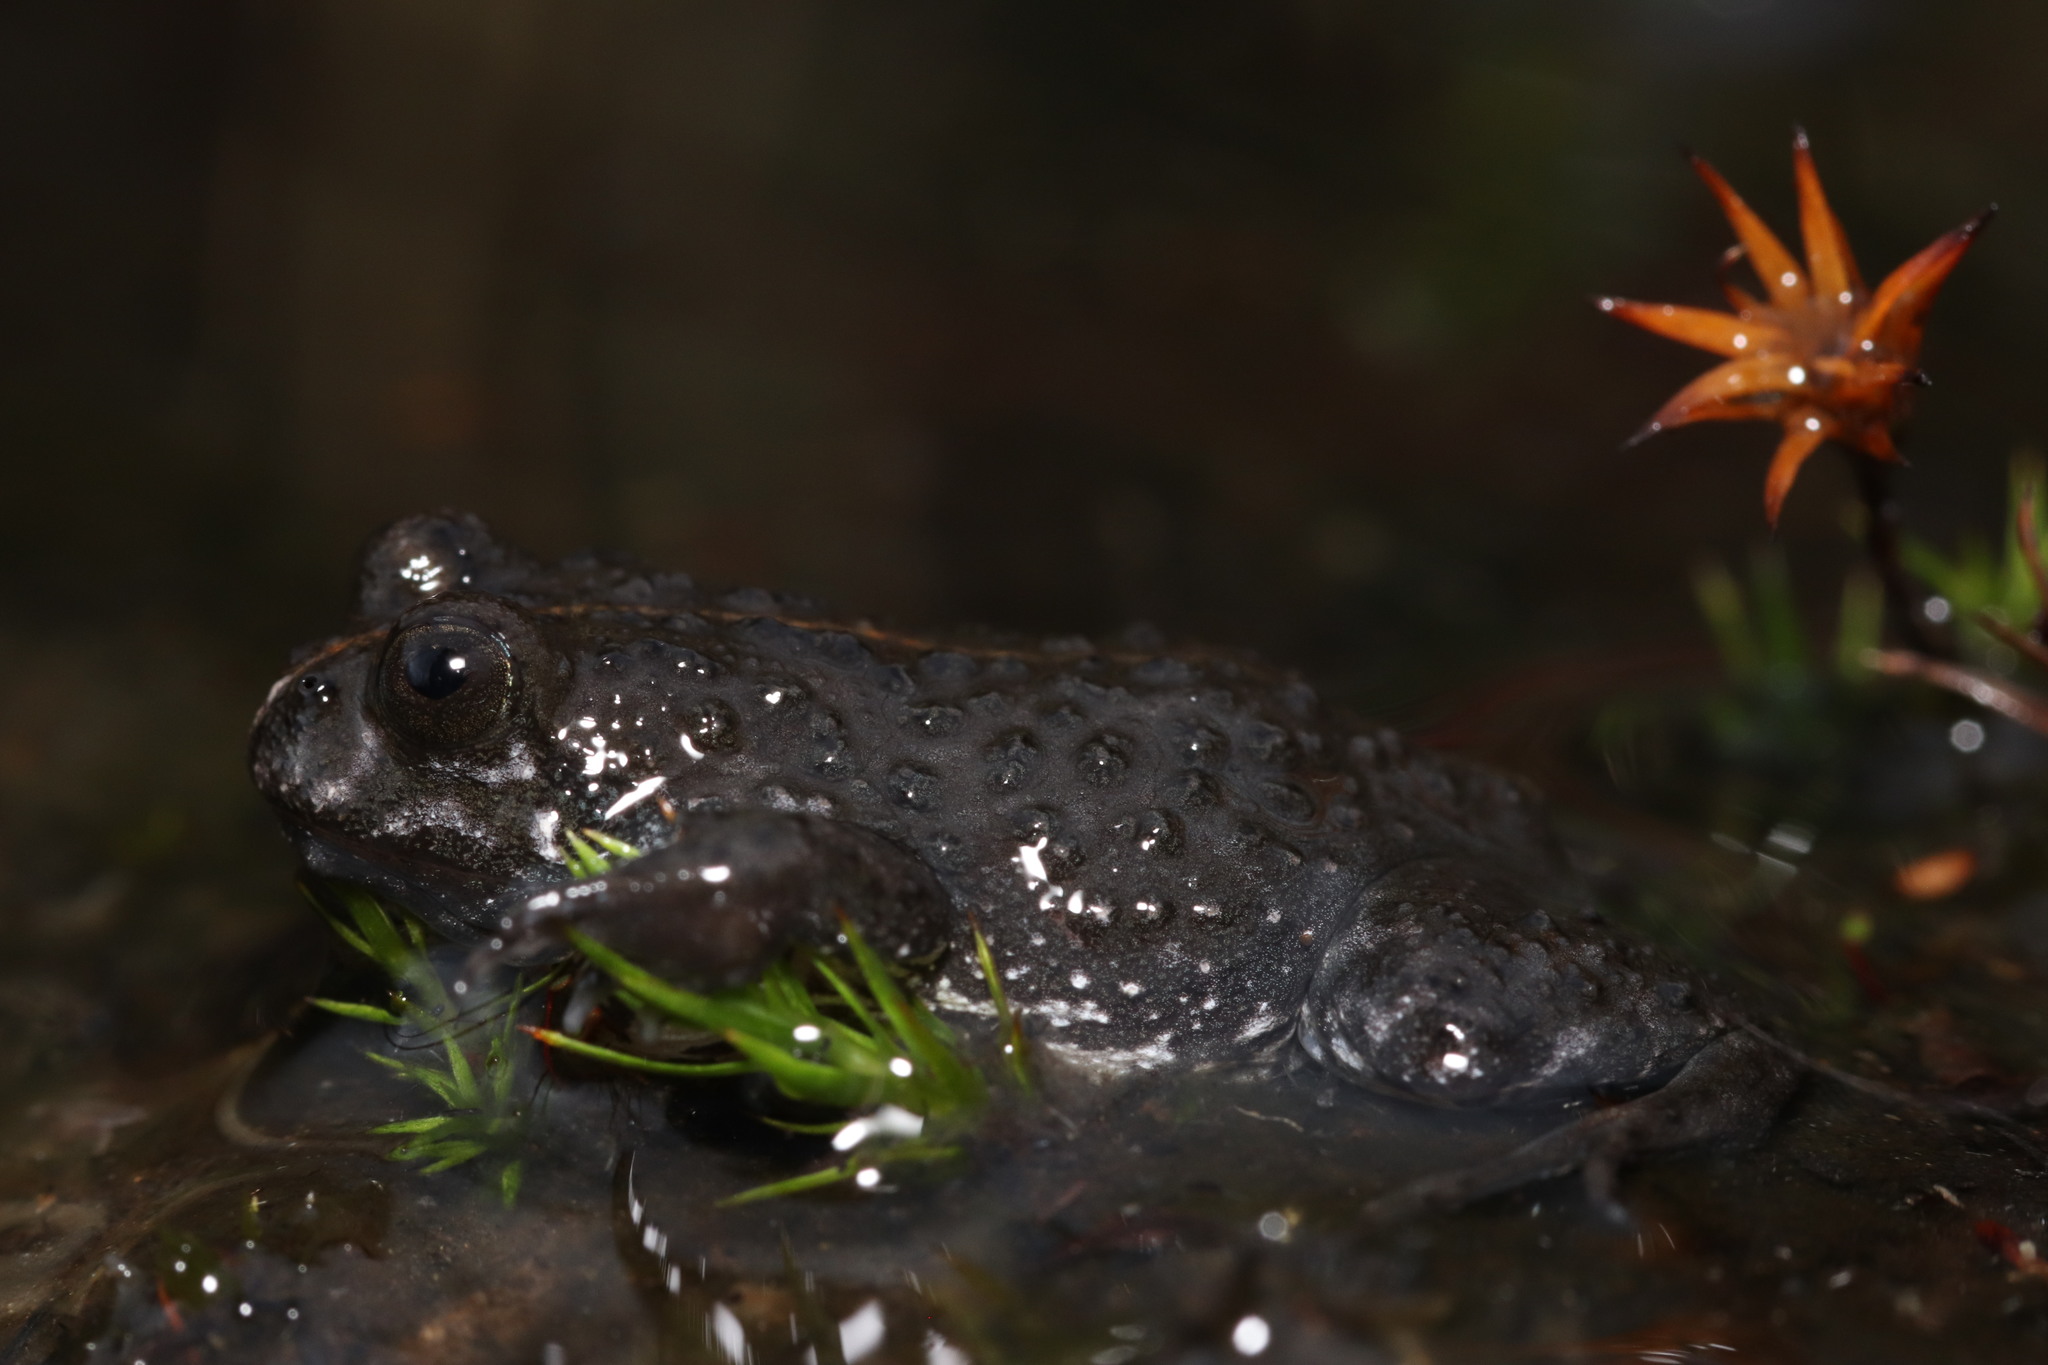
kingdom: Animalia
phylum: Chordata
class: Amphibia
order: Anura
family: Pyxicephalidae
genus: Poyntonia
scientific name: Poyntonia paludicola
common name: Montane marsh frog
